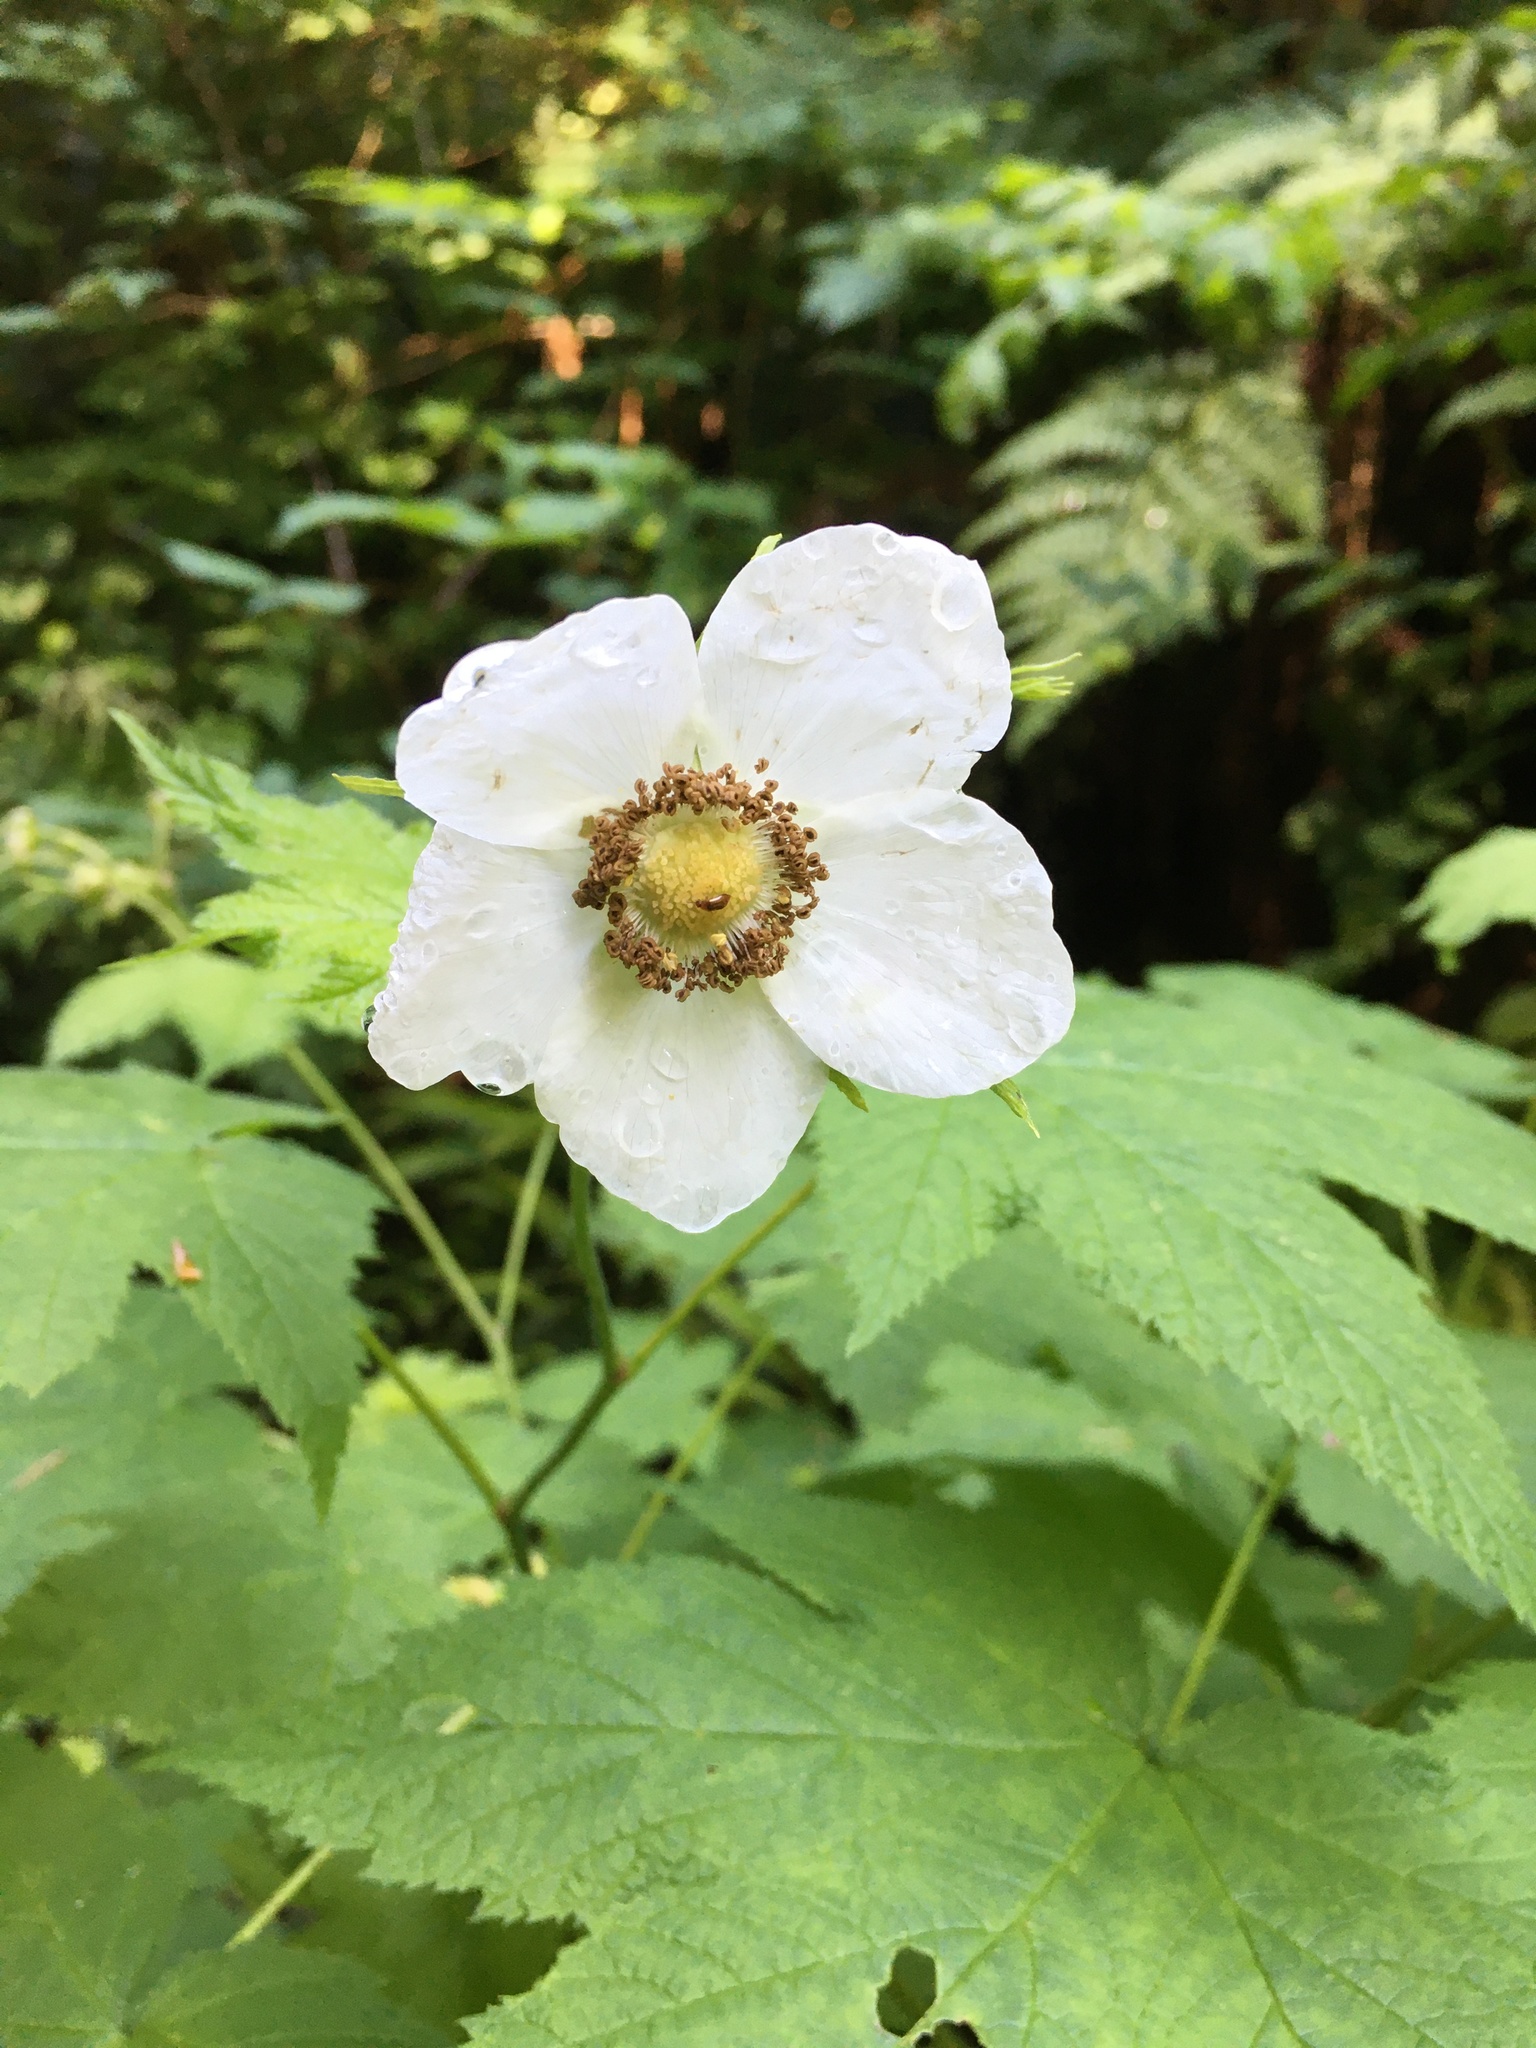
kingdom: Plantae
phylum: Tracheophyta
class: Magnoliopsida
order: Rosales
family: Rosaceae
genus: Rubus
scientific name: Rubus parviflorus
